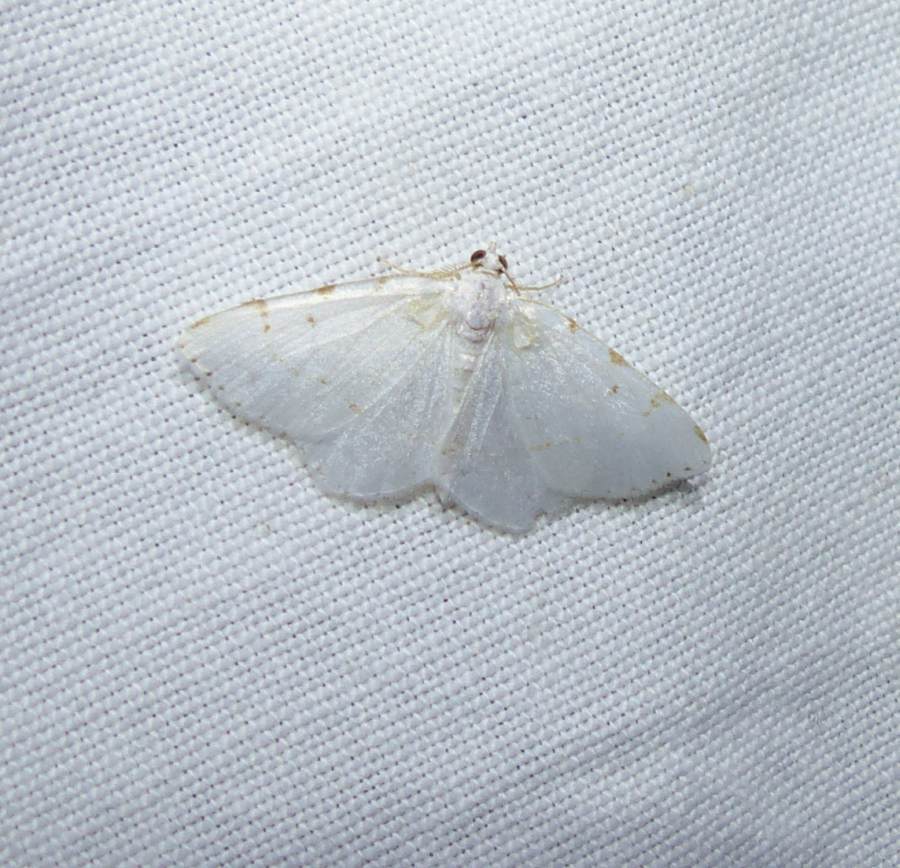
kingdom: Animalia
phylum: Arthropoda
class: Insecta
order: Lepidoptera
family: Geometridae
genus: Macaria
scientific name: Macaria pustularia
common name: Lesser maple spanworm moth
